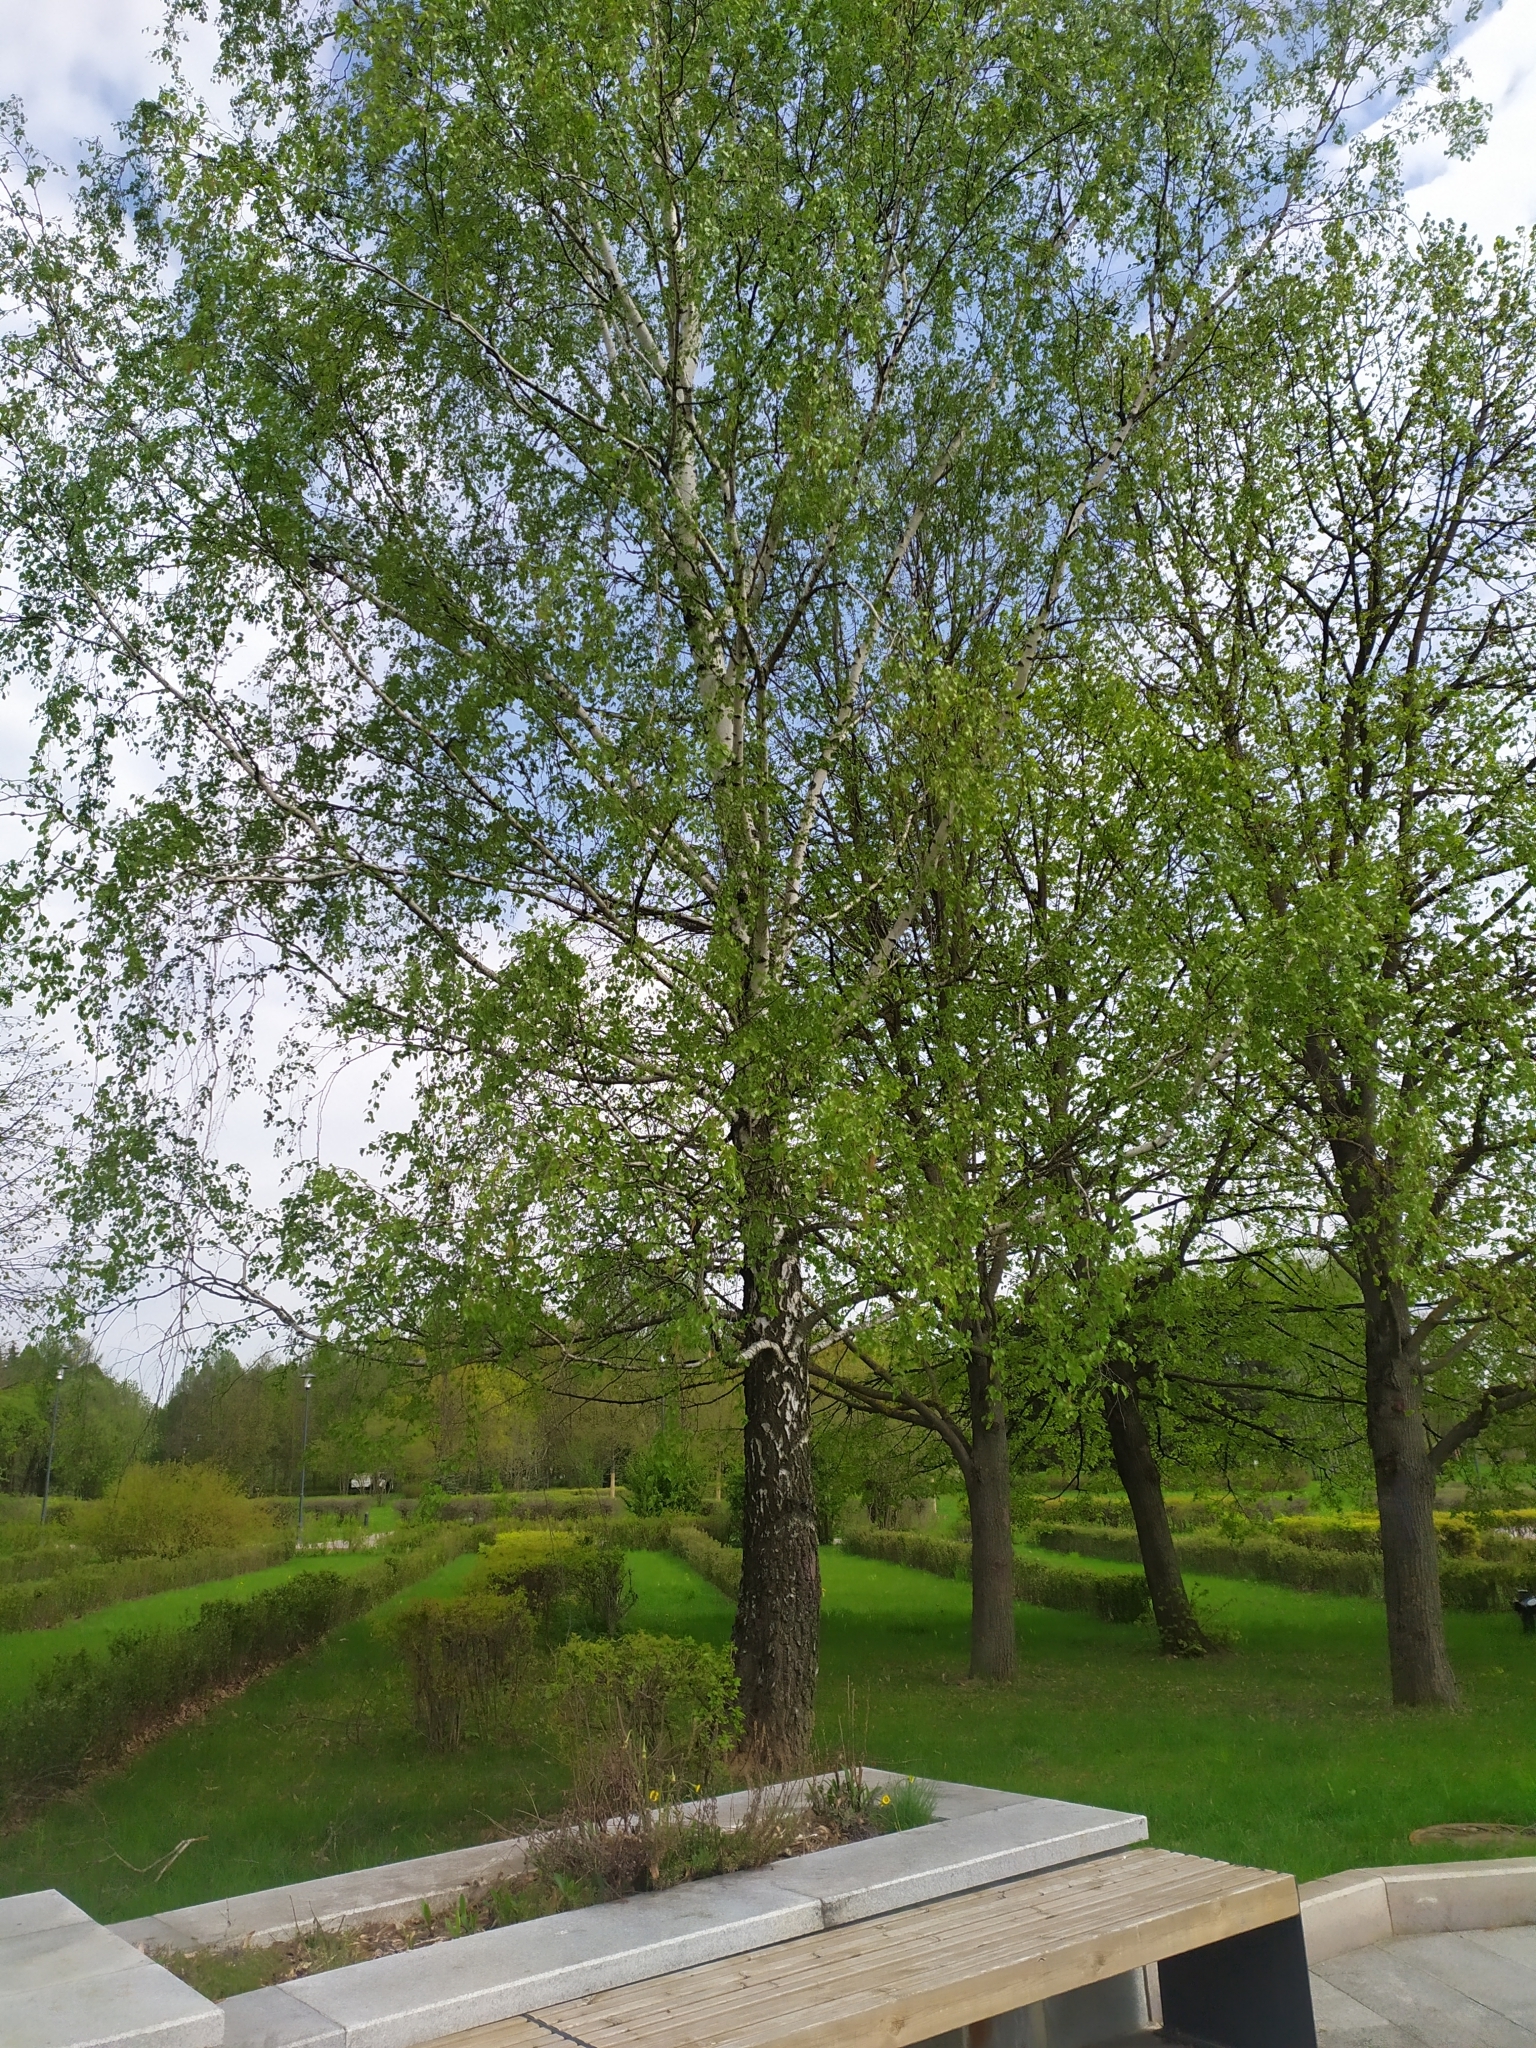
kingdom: Plantae
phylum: Tracheophyta
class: Magnoliopsida
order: Fagales
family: Betulaceae
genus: Betula
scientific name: Betula pendula
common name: Silver birch
